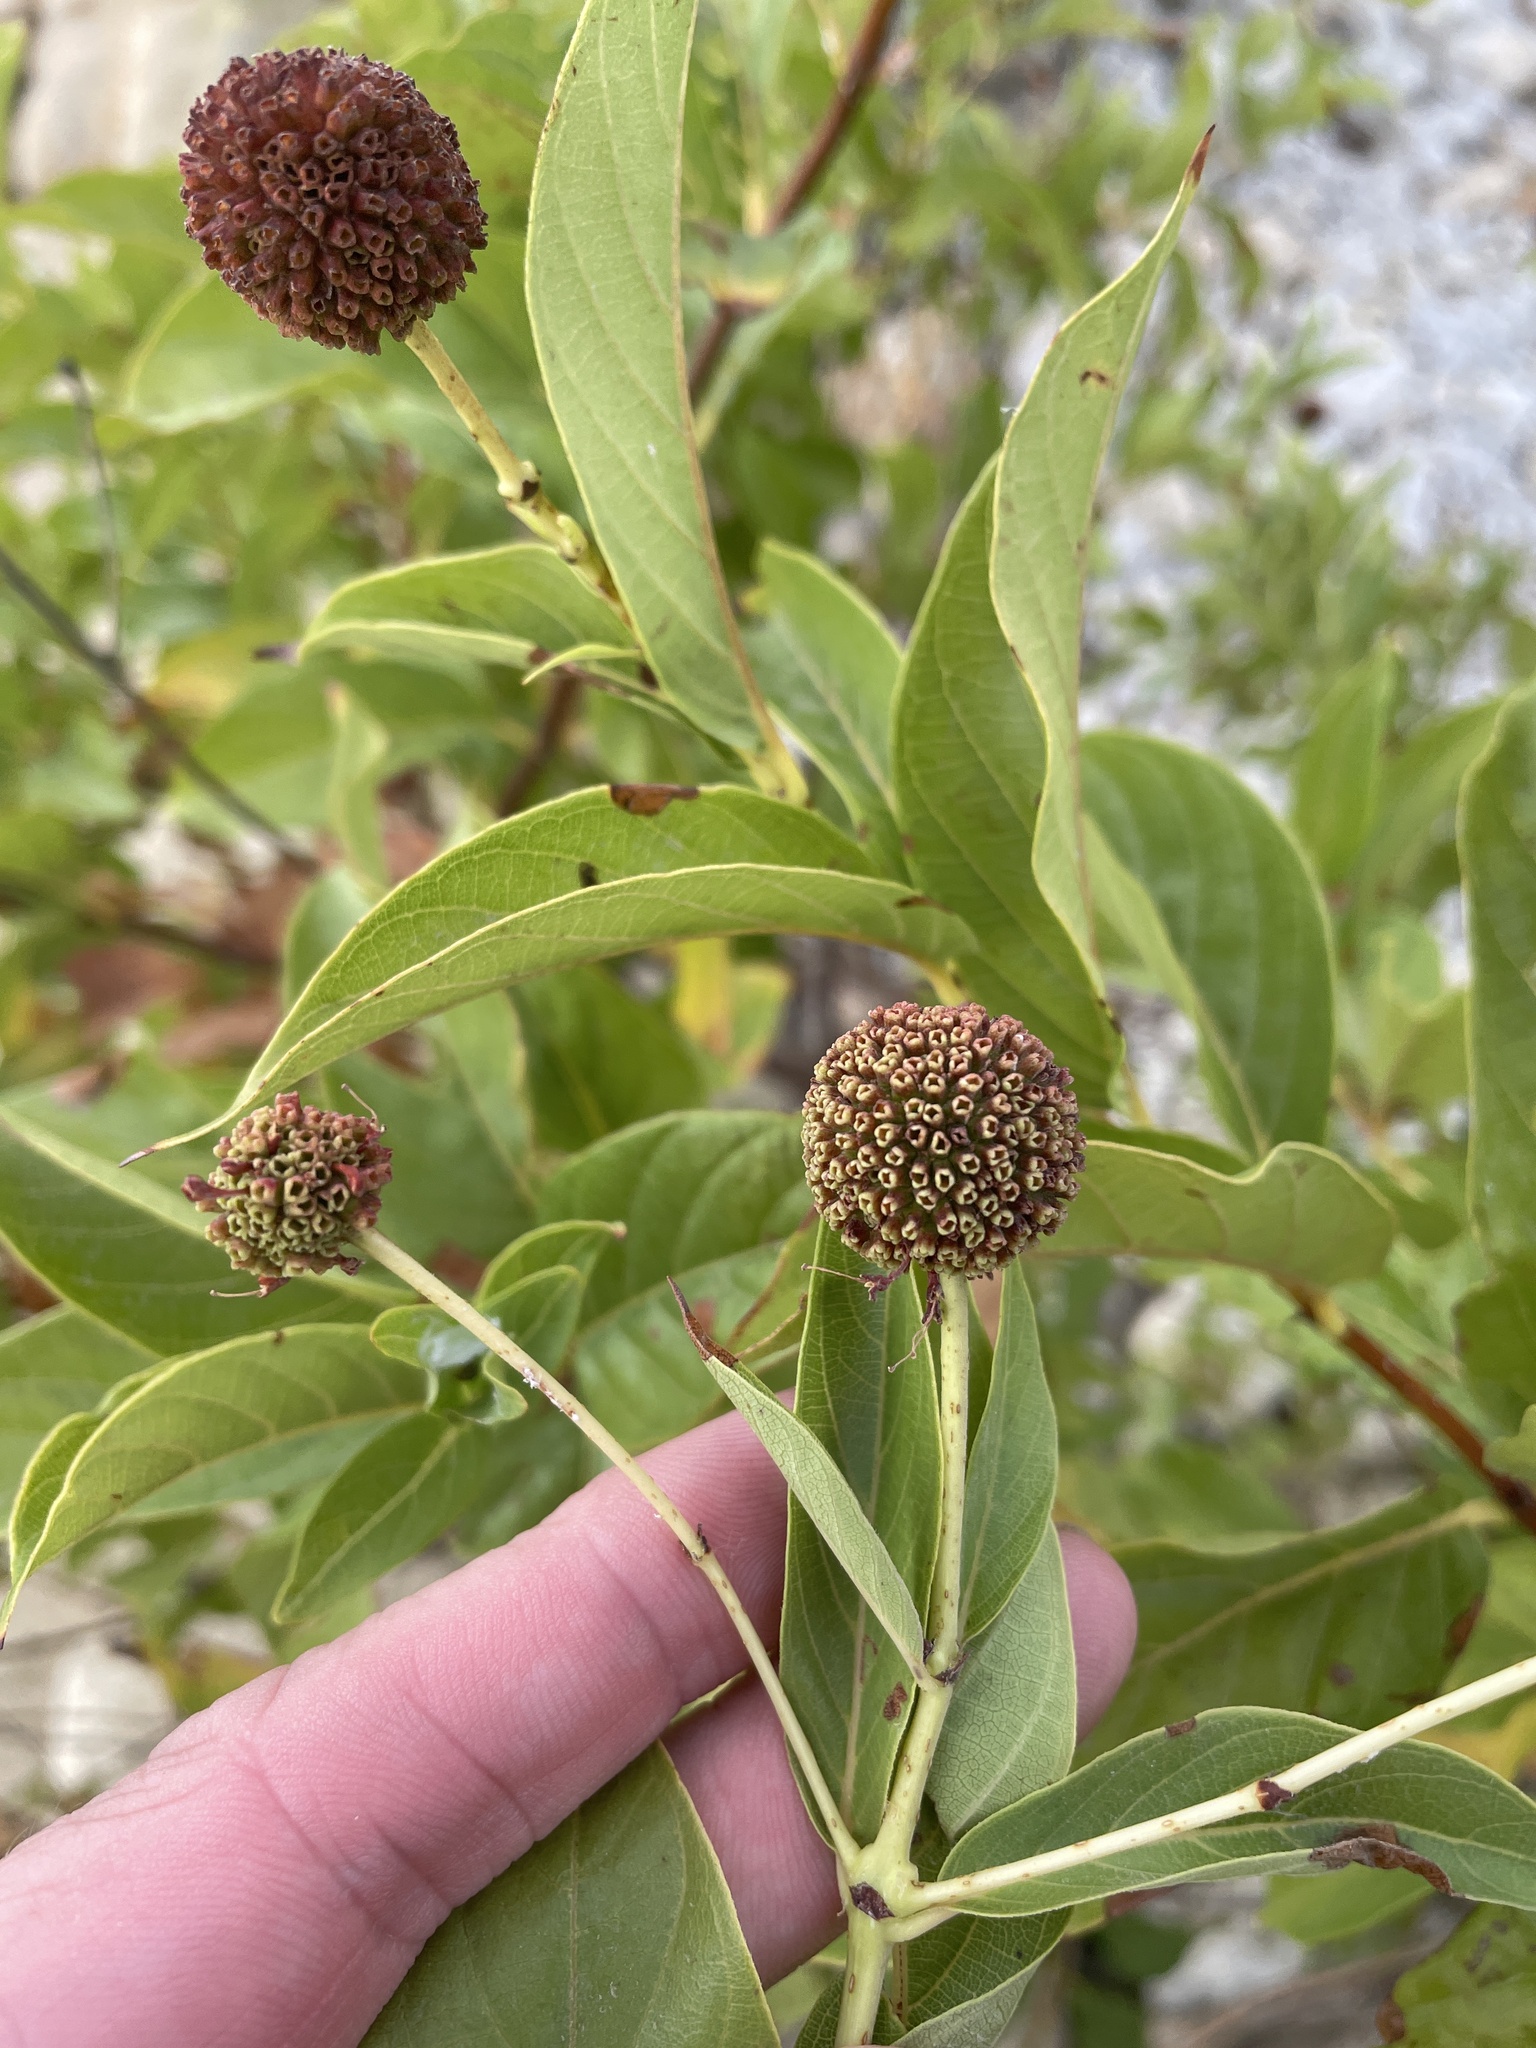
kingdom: Plantae
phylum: Tracheophyta
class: Magnoliopsida
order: Gentianales
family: Rubiaceae
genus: Cephalanthus
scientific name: Cephalanthus occidentalis
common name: Button-willow
